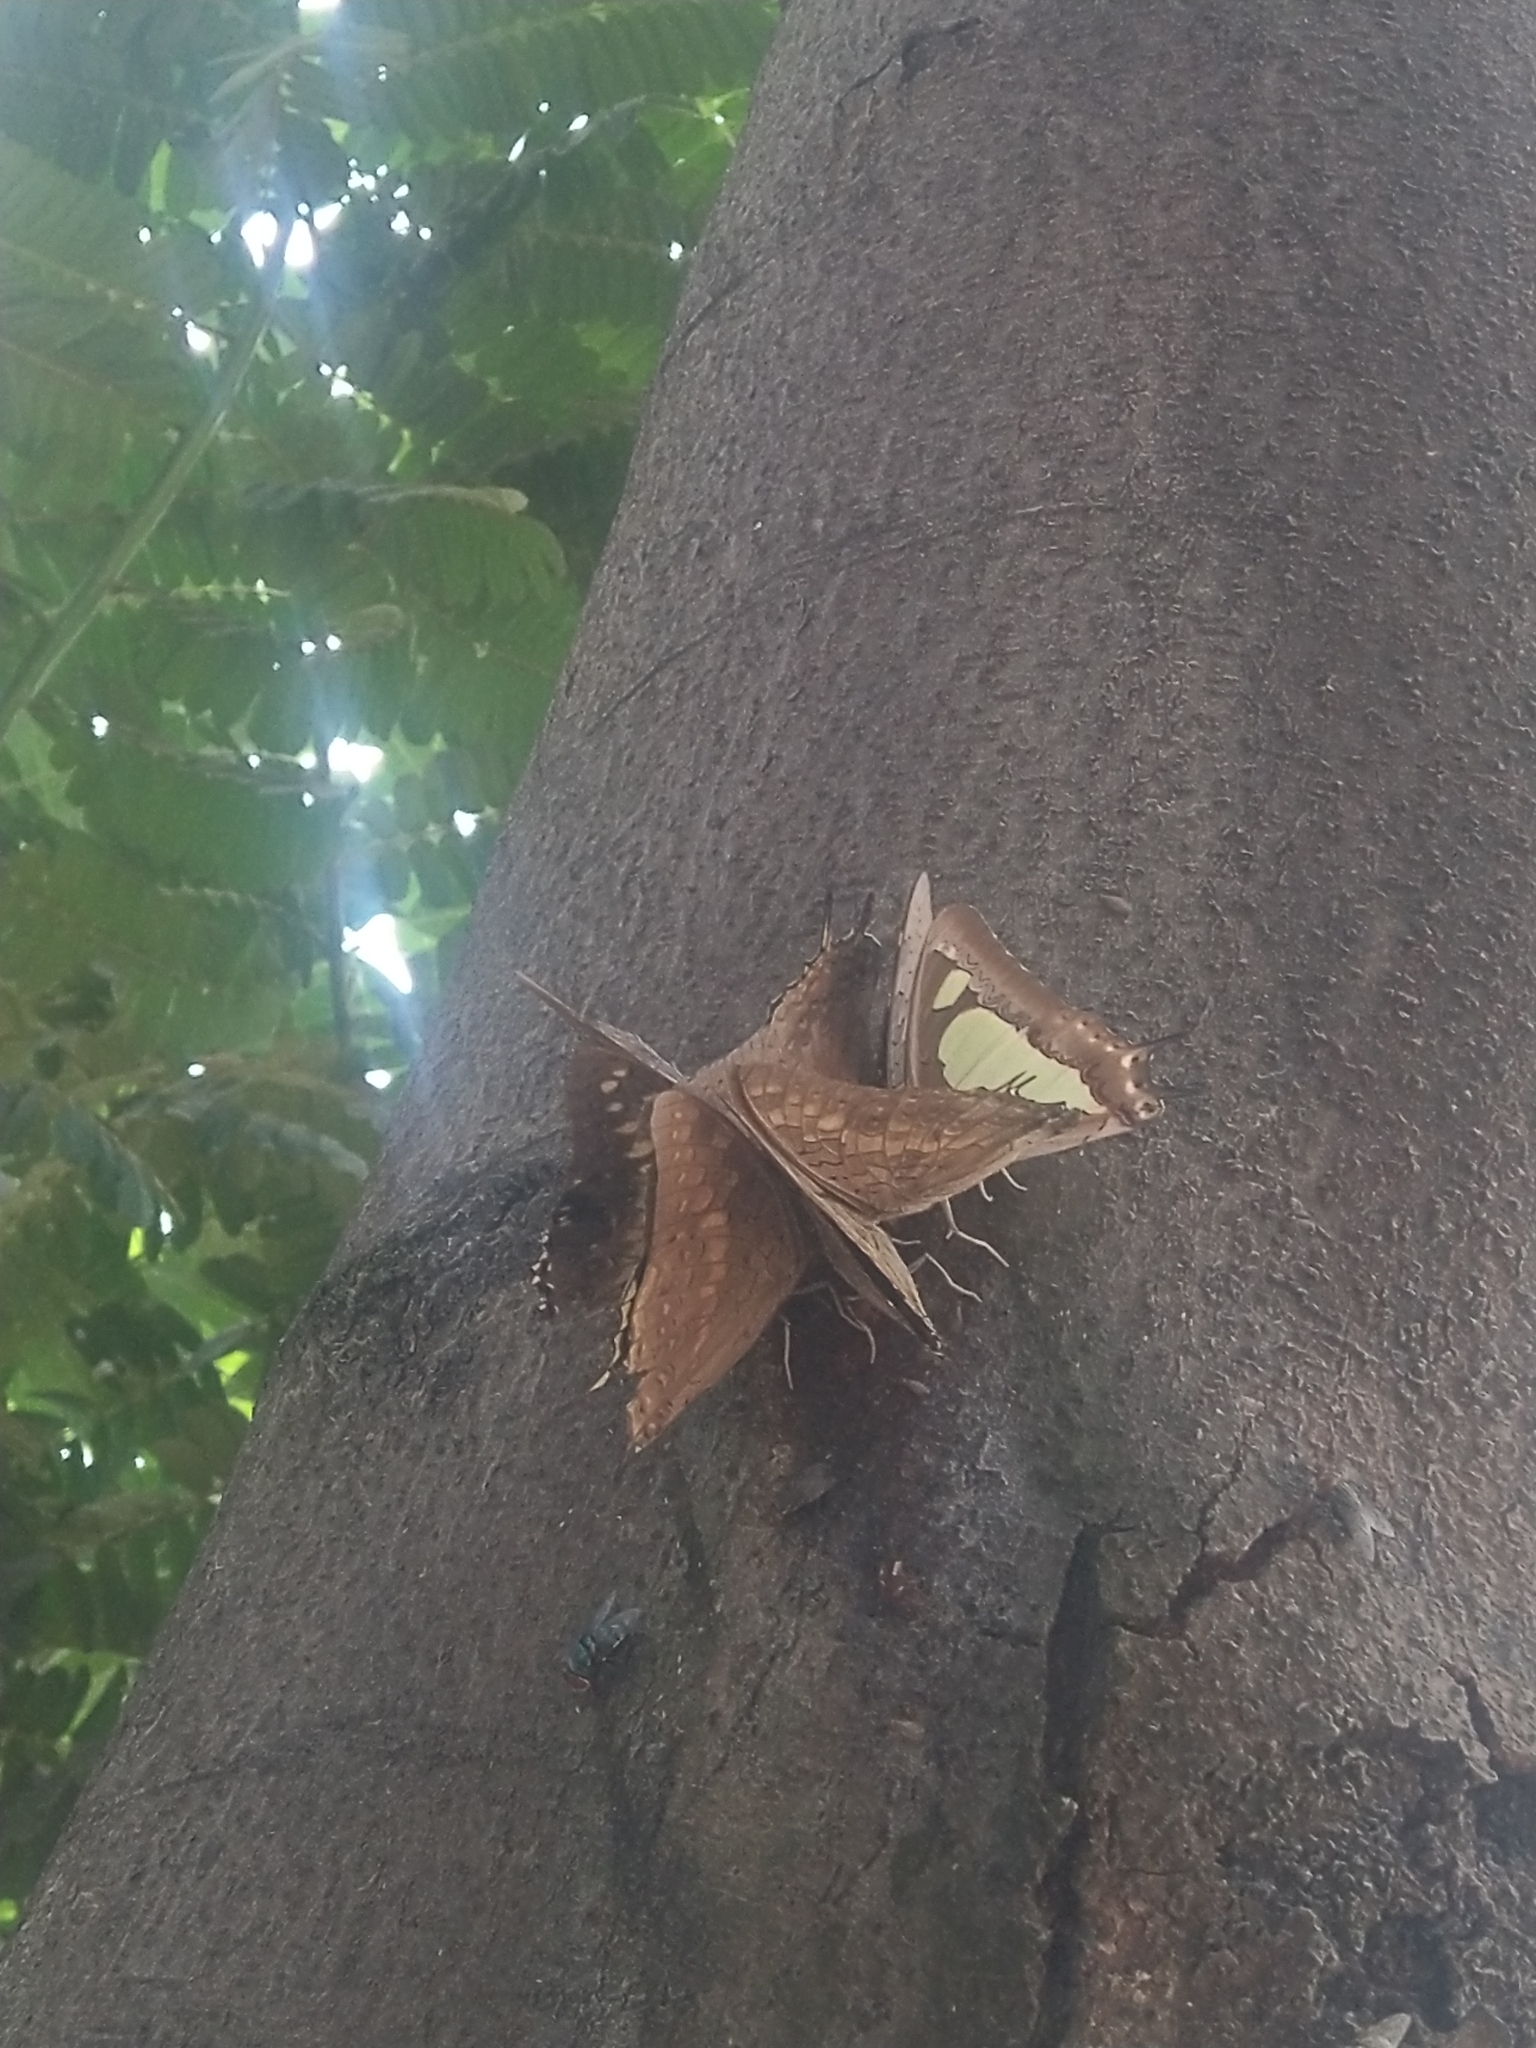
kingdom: Animalia
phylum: Arthropoda
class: Insecta
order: Lepidoptera
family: Nymphalidae
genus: Charaxes
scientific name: Charaxes solon
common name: Black rajah
